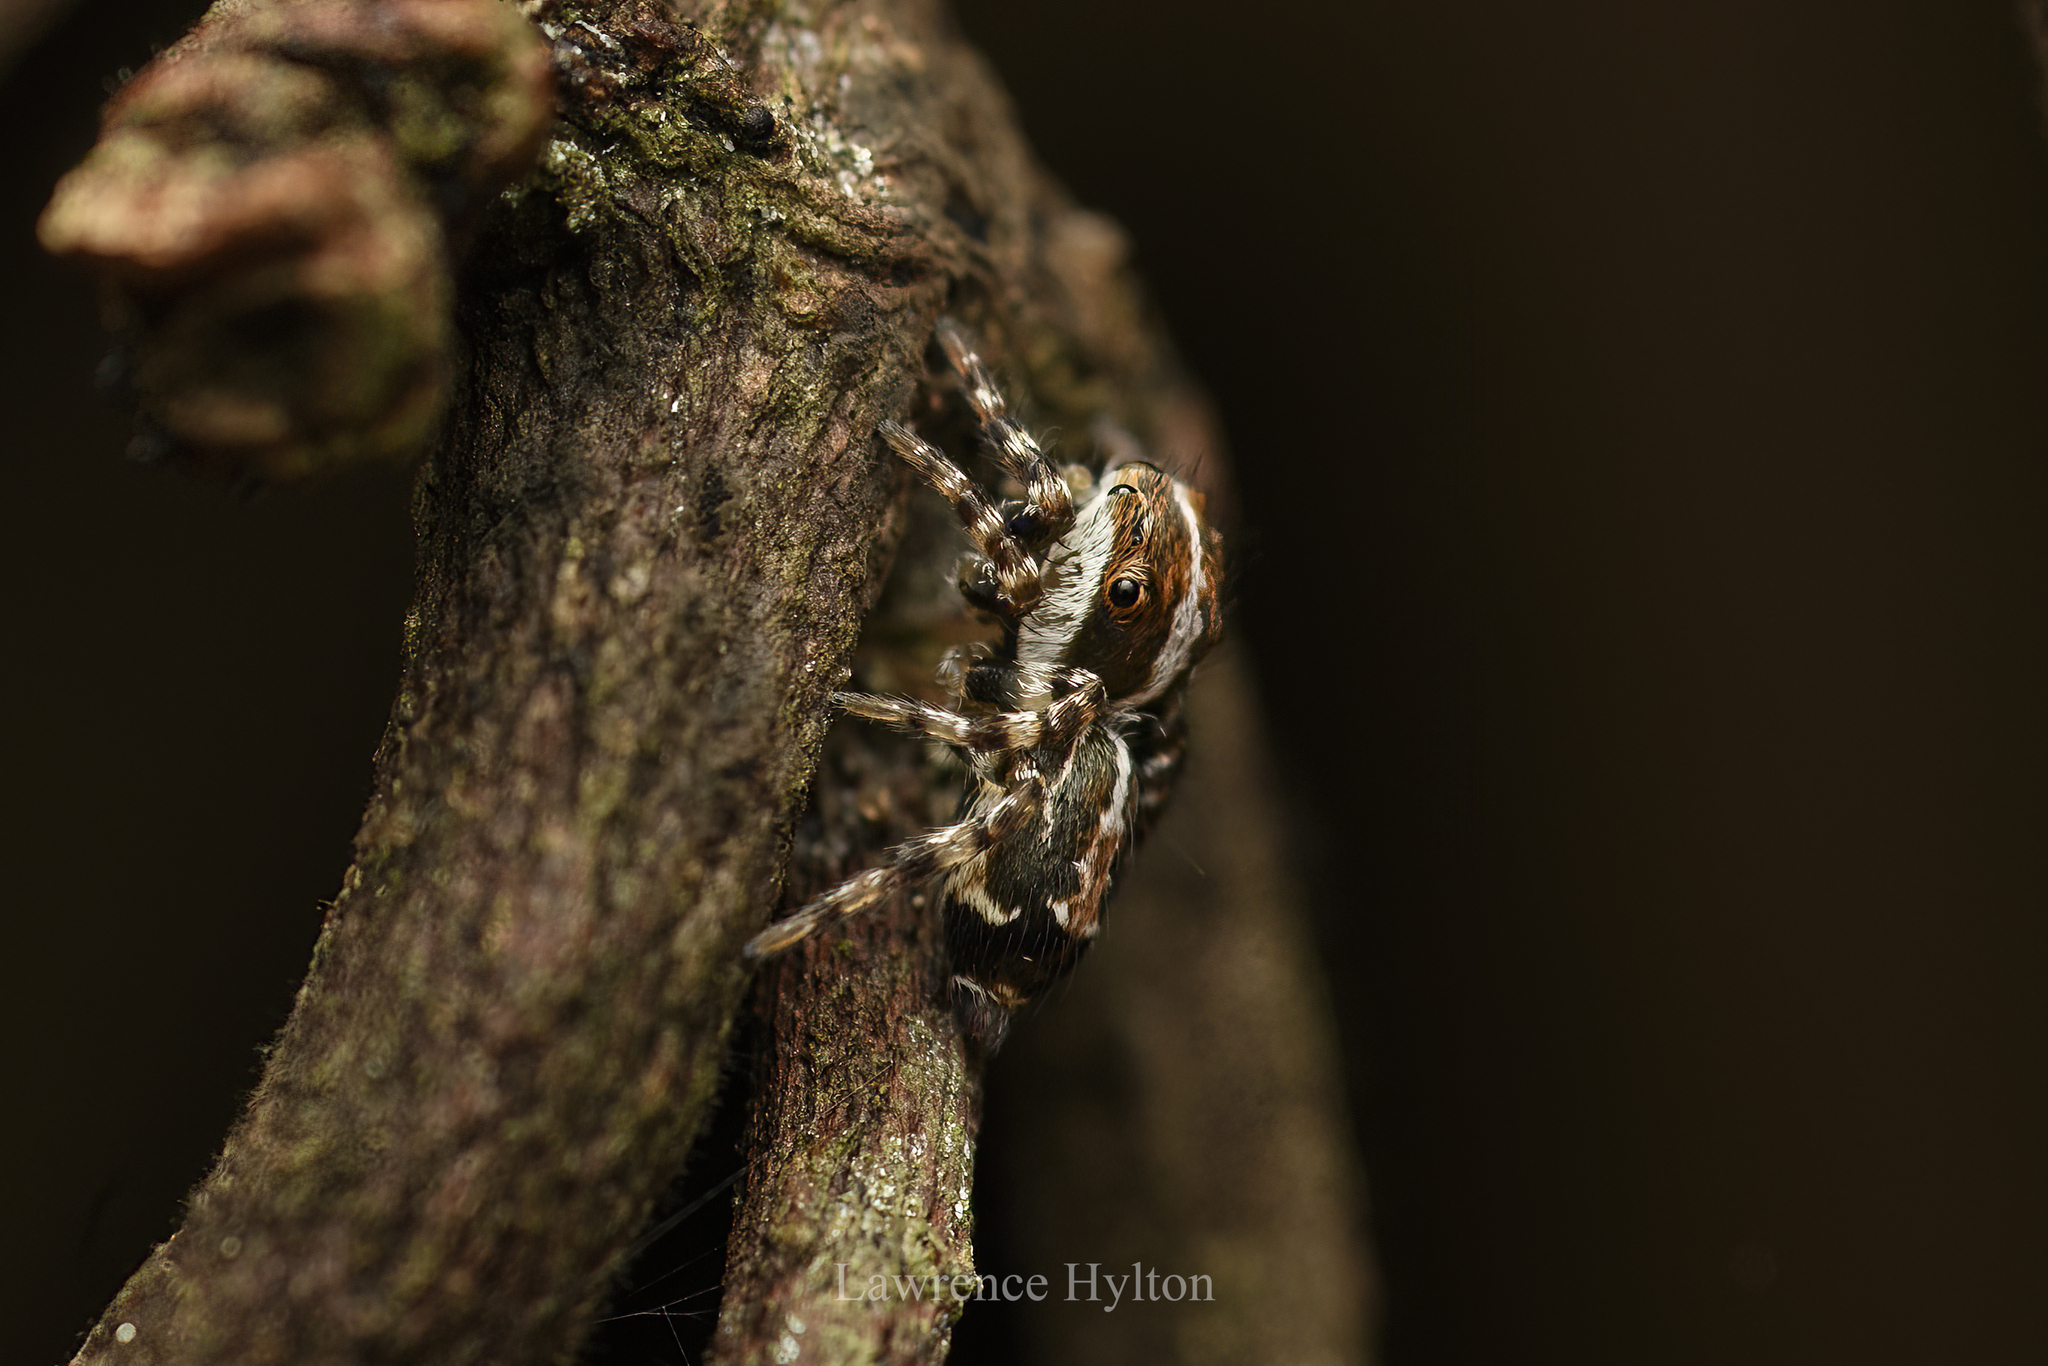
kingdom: Animalia
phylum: Arthropoda
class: Arachnida
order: Araneae
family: Salticidae
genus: Thyene
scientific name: Thyene orientalis
